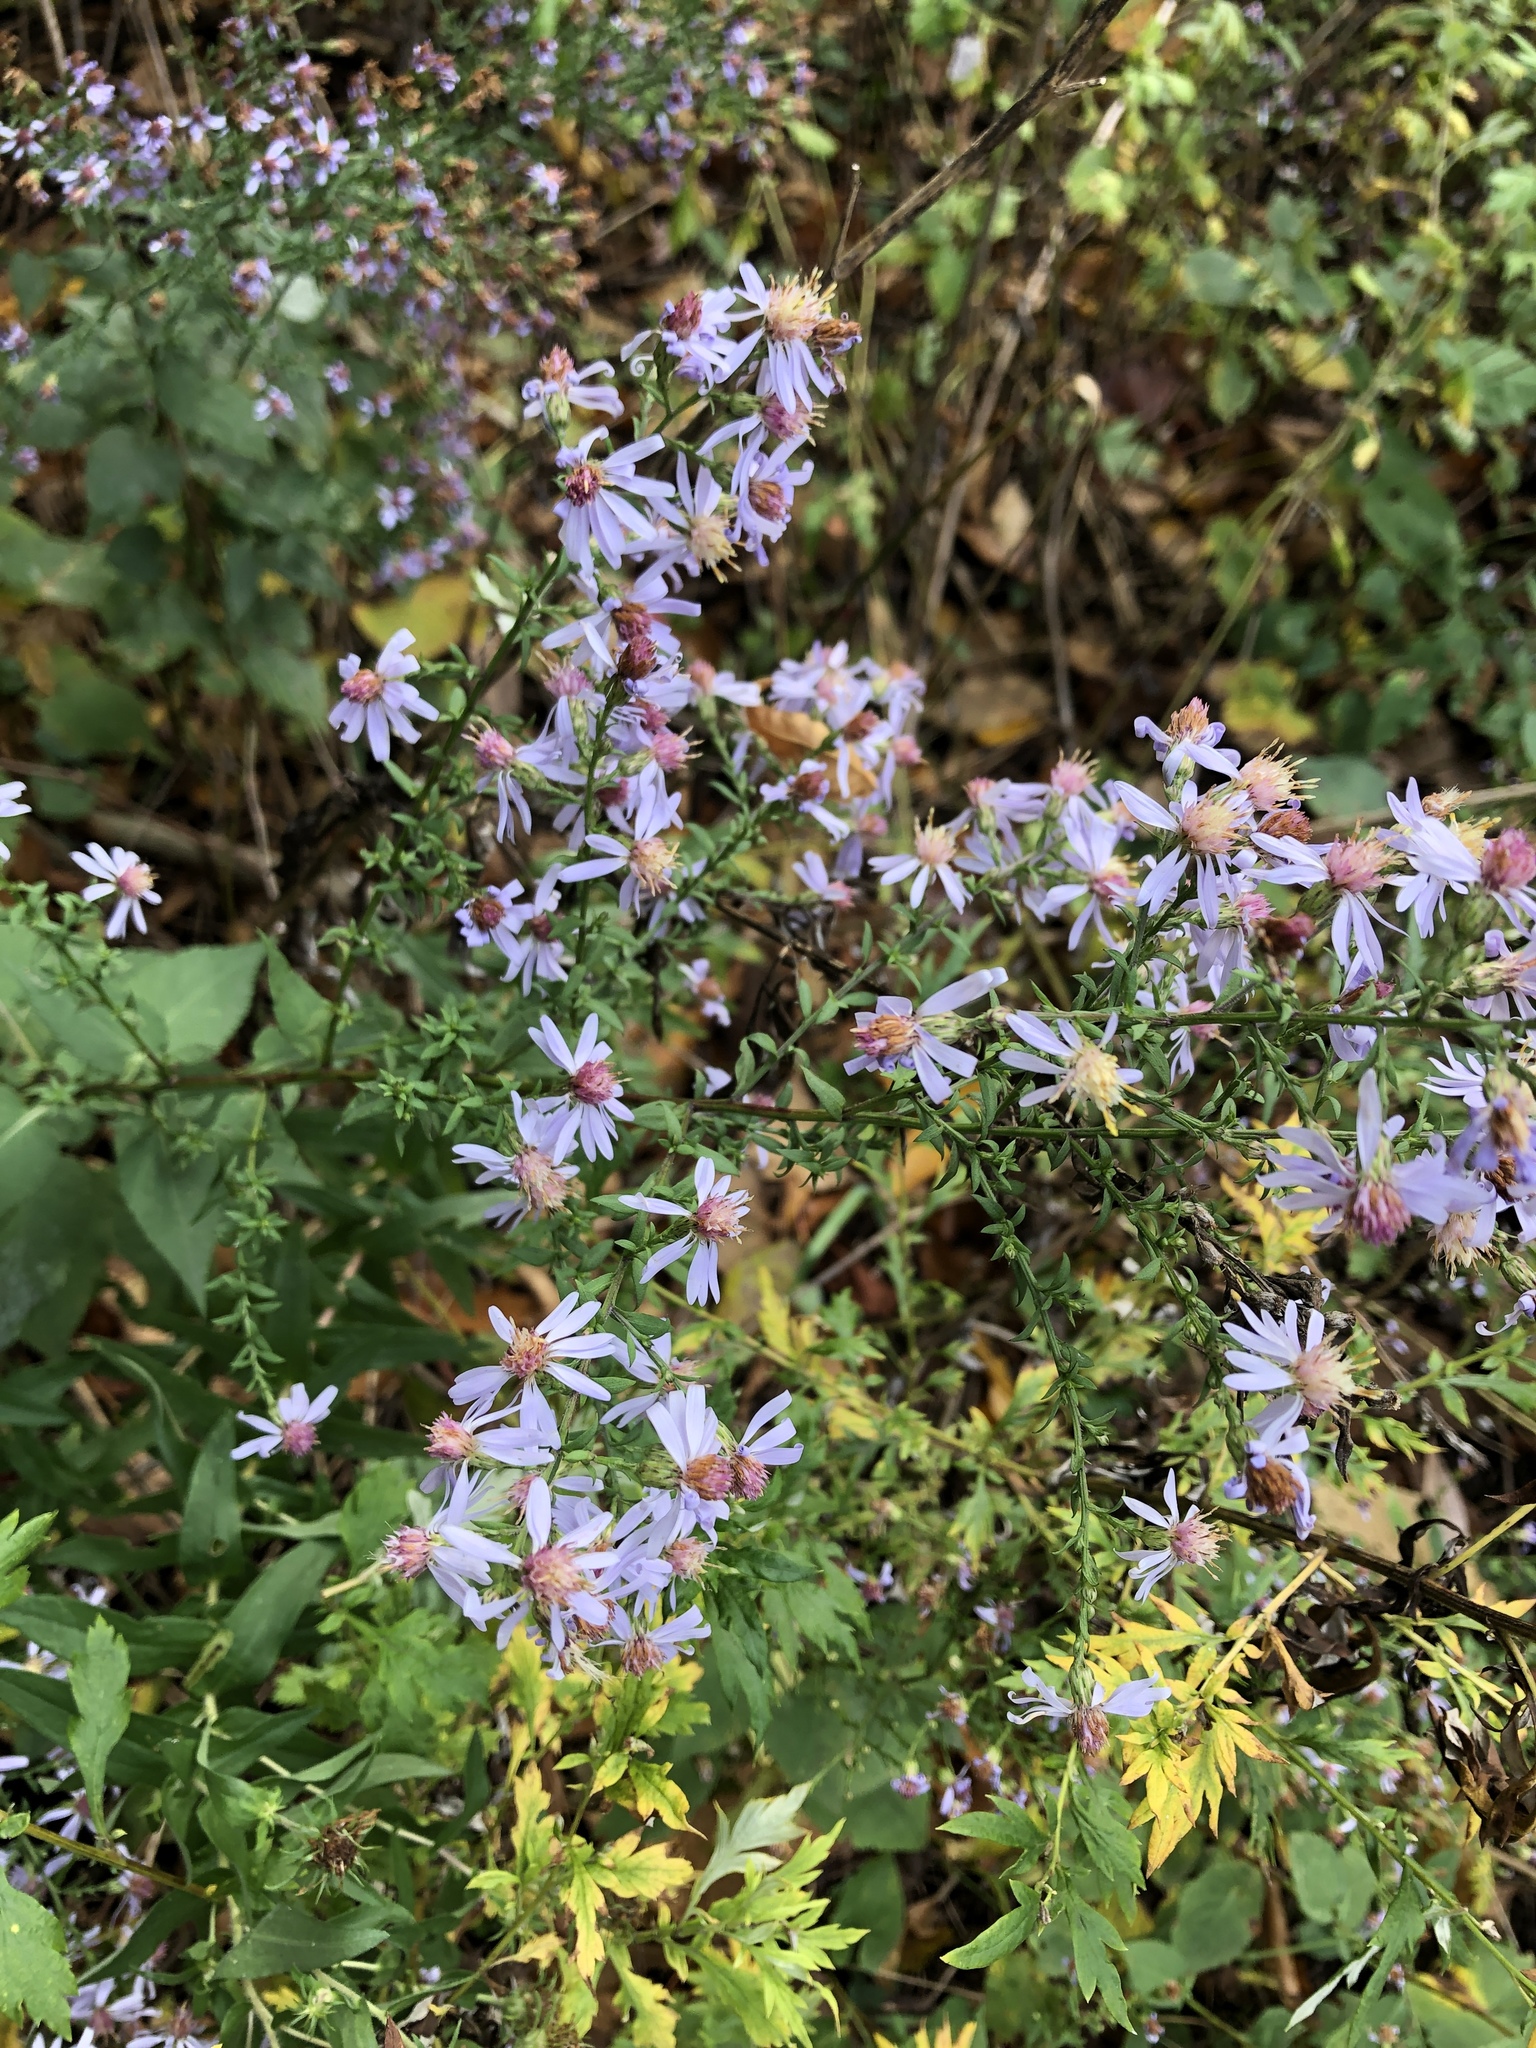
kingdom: Plantae
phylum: Tracheophyta
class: Magnoliopsida
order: Asterales
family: Asteraceae
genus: Symphyotrichum
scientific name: Symphyotrichum cordifolium
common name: Beeweed
